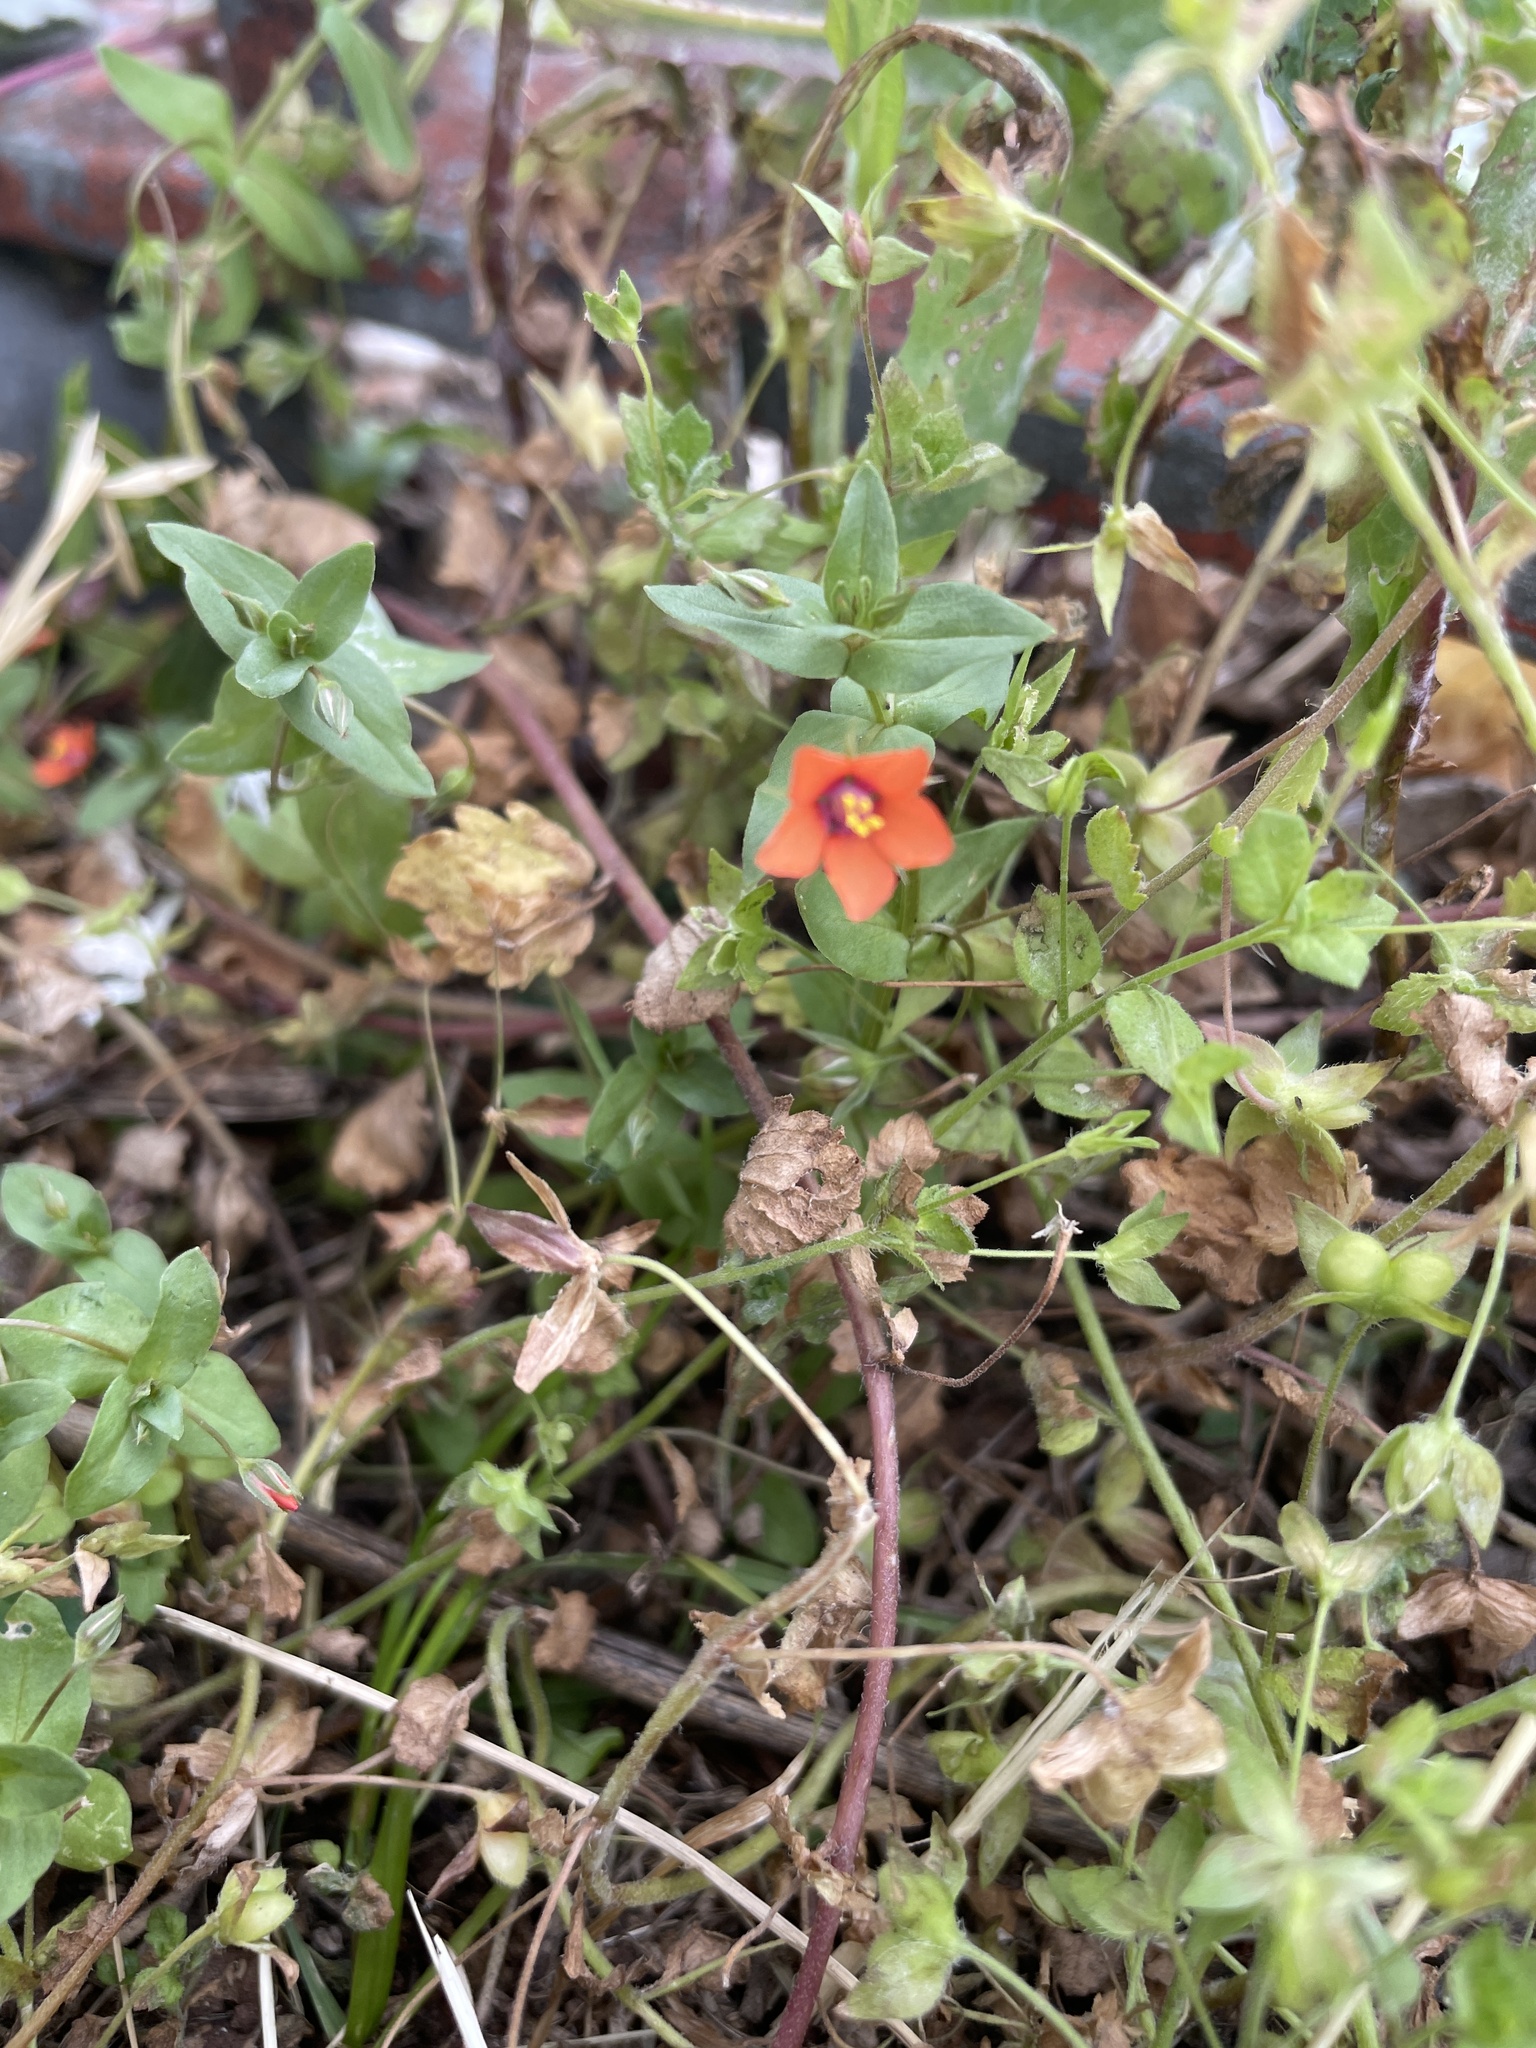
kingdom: Plantae
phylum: Tracheophyta
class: Magnoliopsida
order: Ericales
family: Primulaceae
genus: Lysimachia
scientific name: Lysimachia arvensis
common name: Scarlet pimpernel
